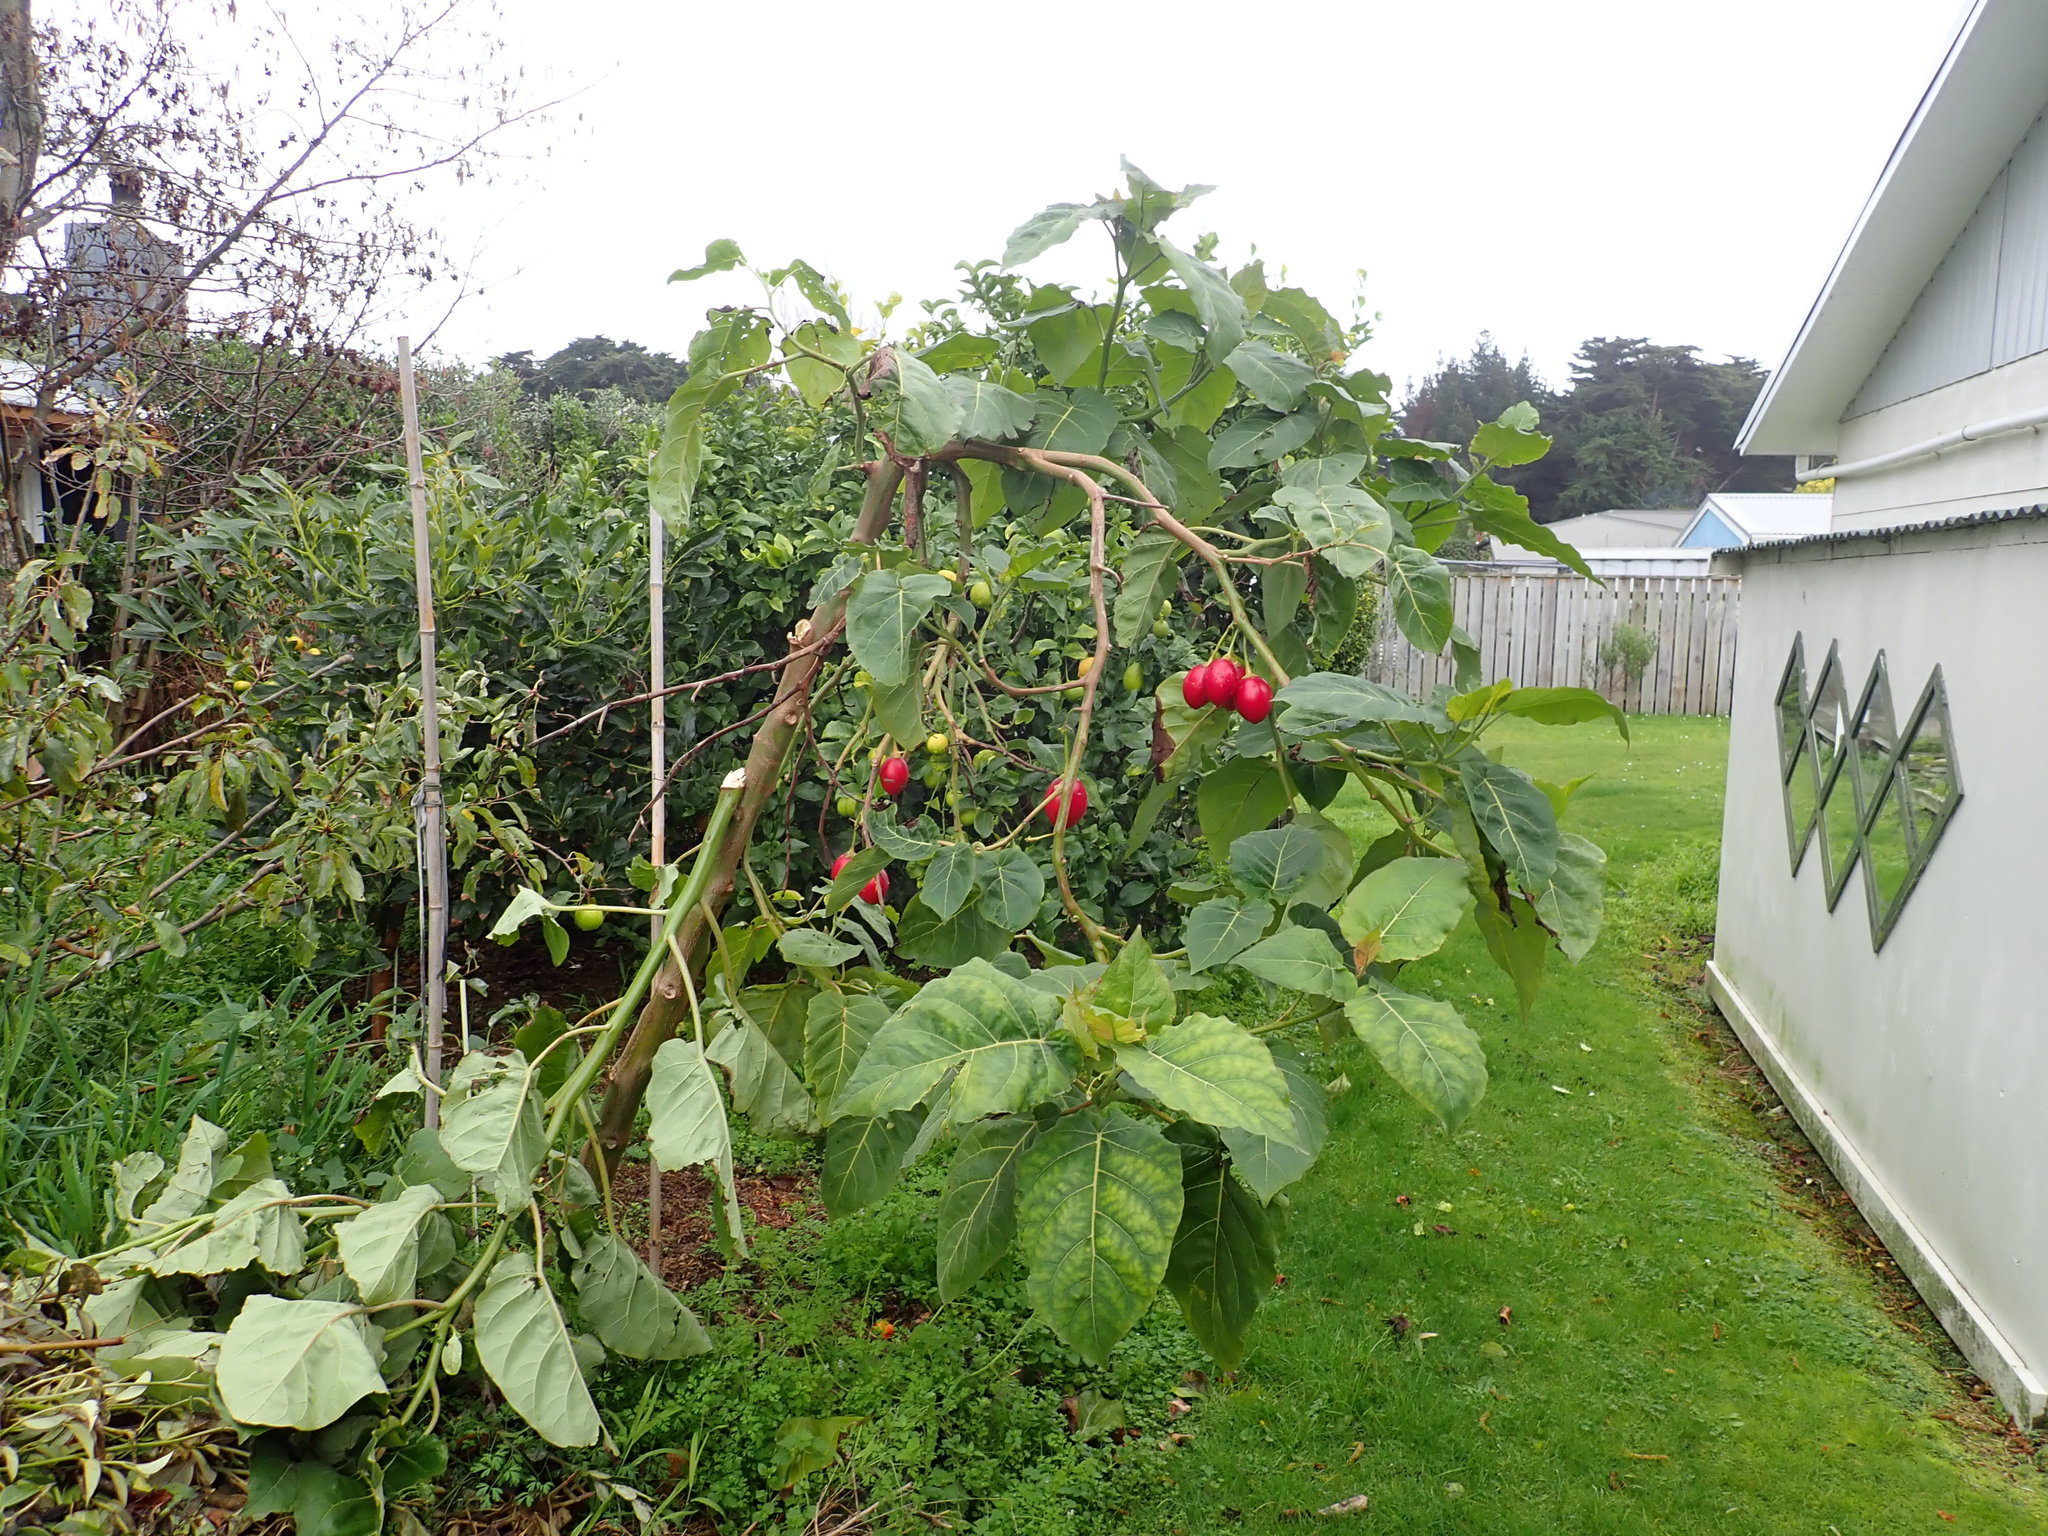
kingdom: Plantae
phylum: Tracheophyta
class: Magnoliopsida
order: Solanales
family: Solanaceae
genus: Solanum
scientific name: Solanum betaceum
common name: Tamarillo
